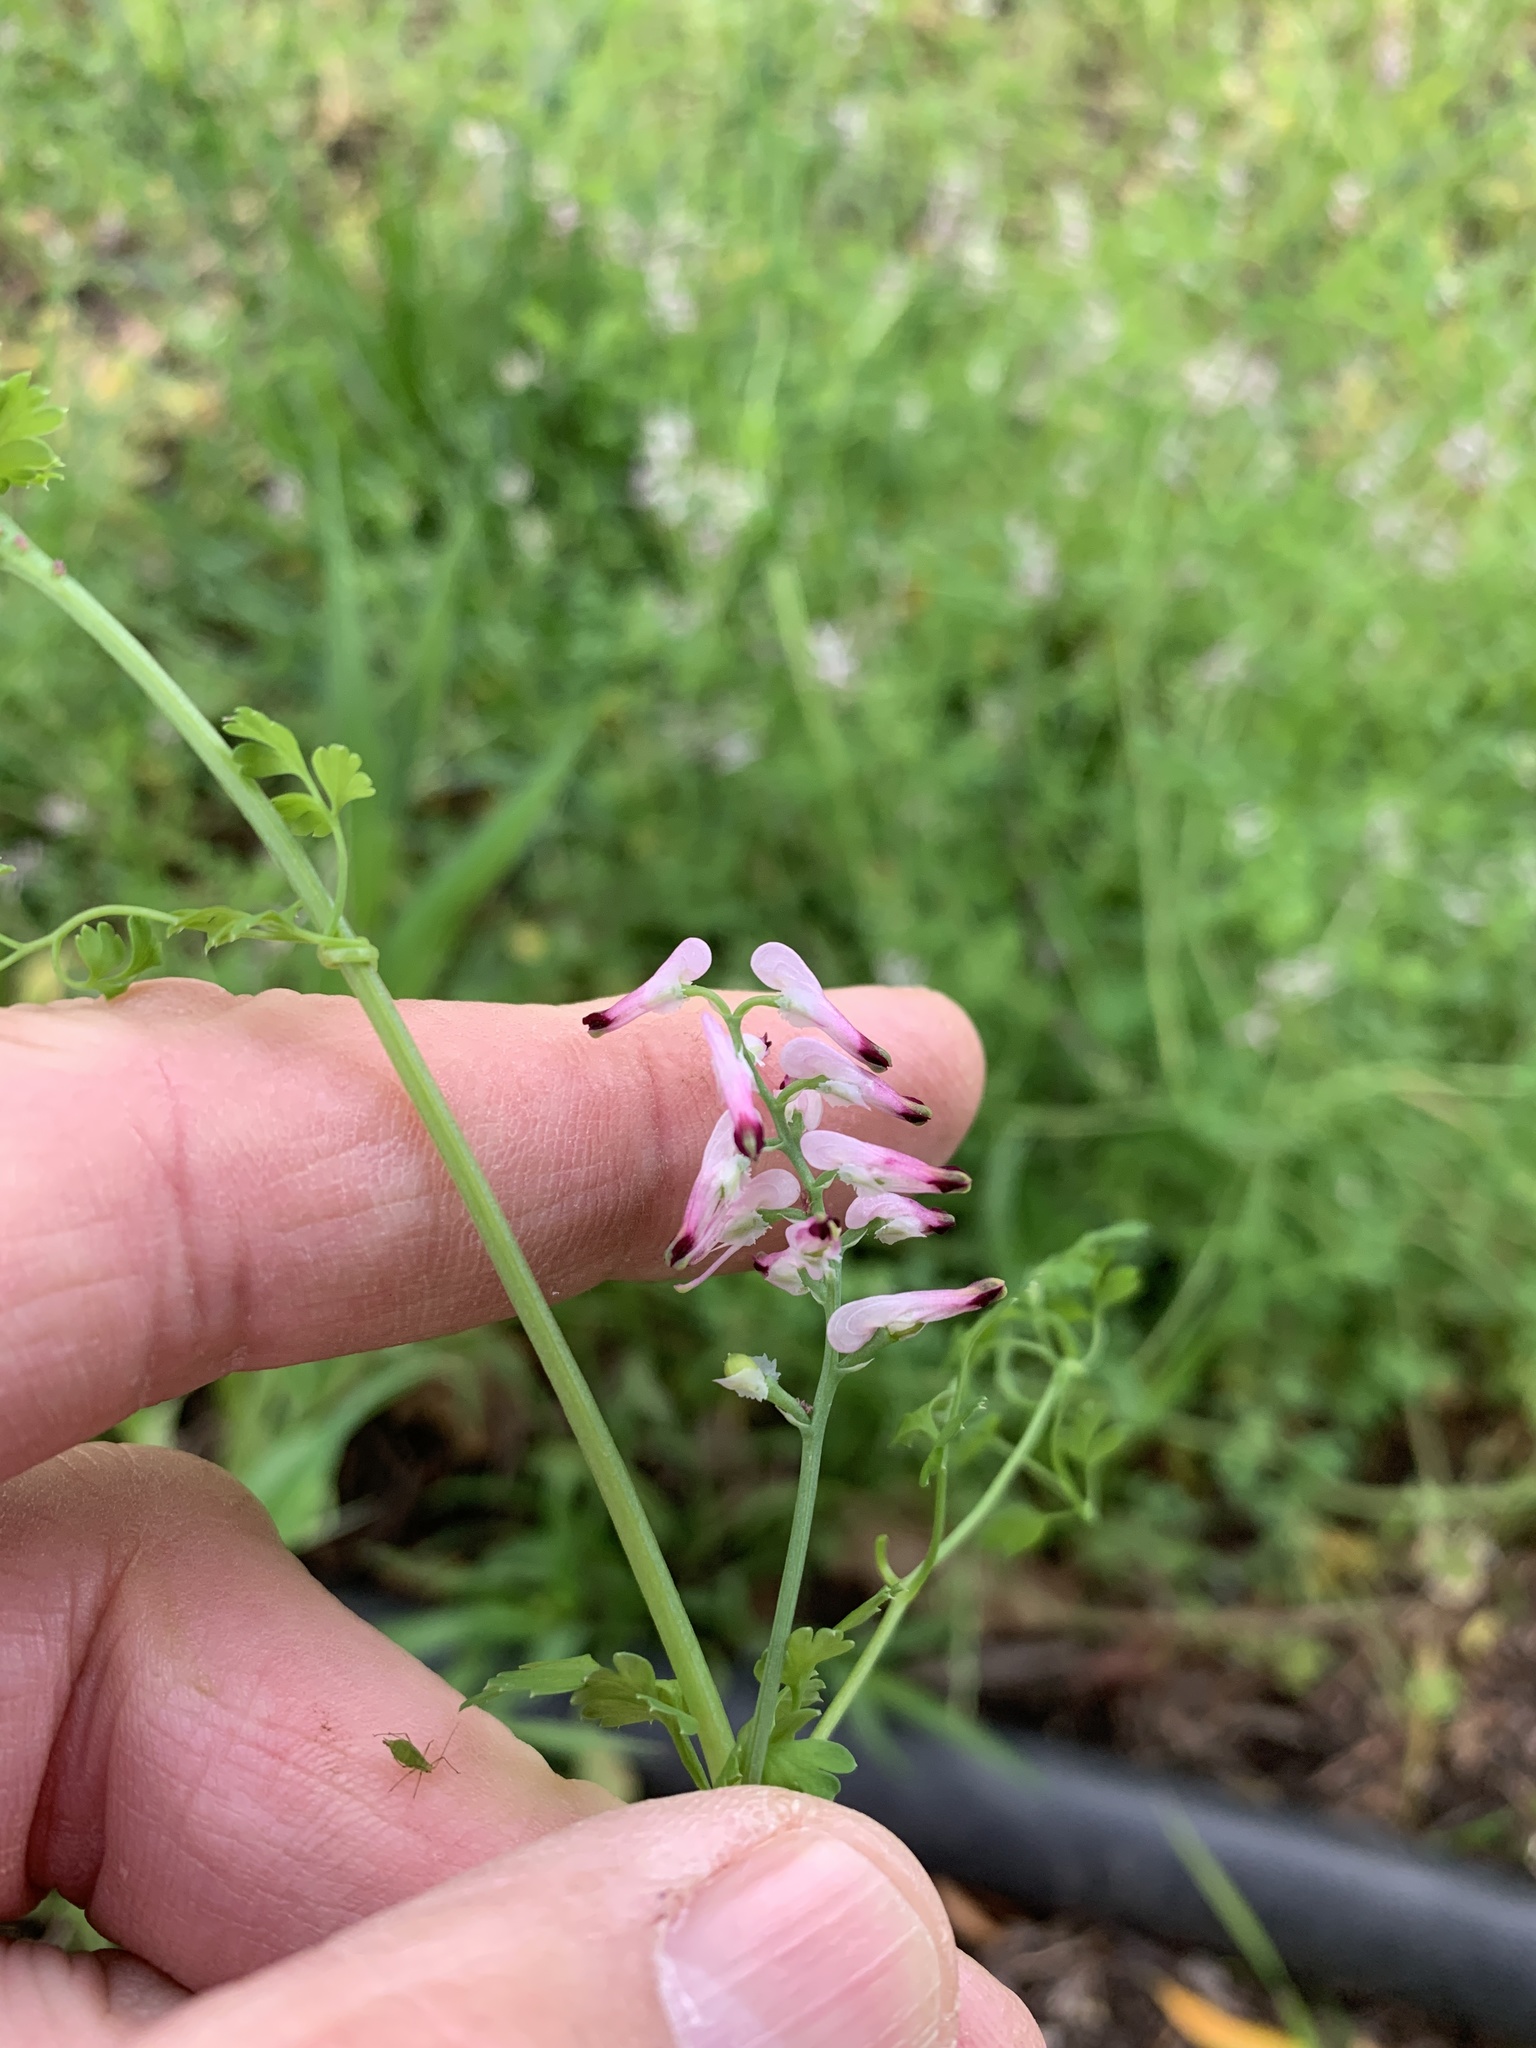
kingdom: Plantae
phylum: Tracheophyta
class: Magnoliopsida
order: Ranunculales
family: Papaveraceae
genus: Fumaria
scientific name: Fumaria muralis
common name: Common ramping-fumitory
